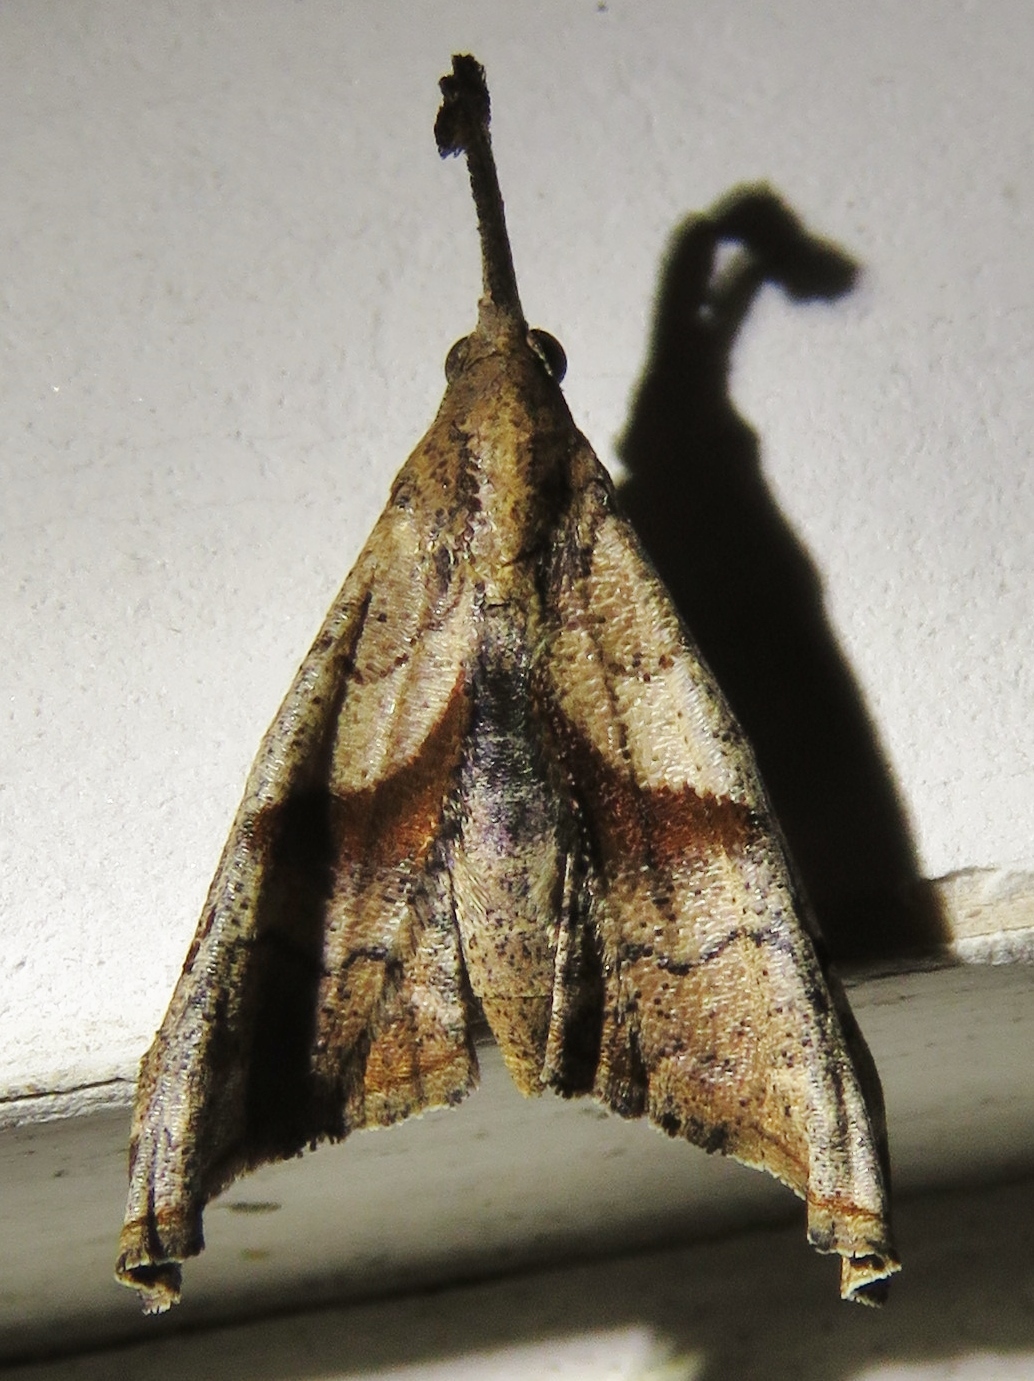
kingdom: Animalia
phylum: Arthropoda
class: Insecta
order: Lepidoptera
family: Erebidae
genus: Palthis
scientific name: Palthis angulalis
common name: Dark-spotted palthis moth
